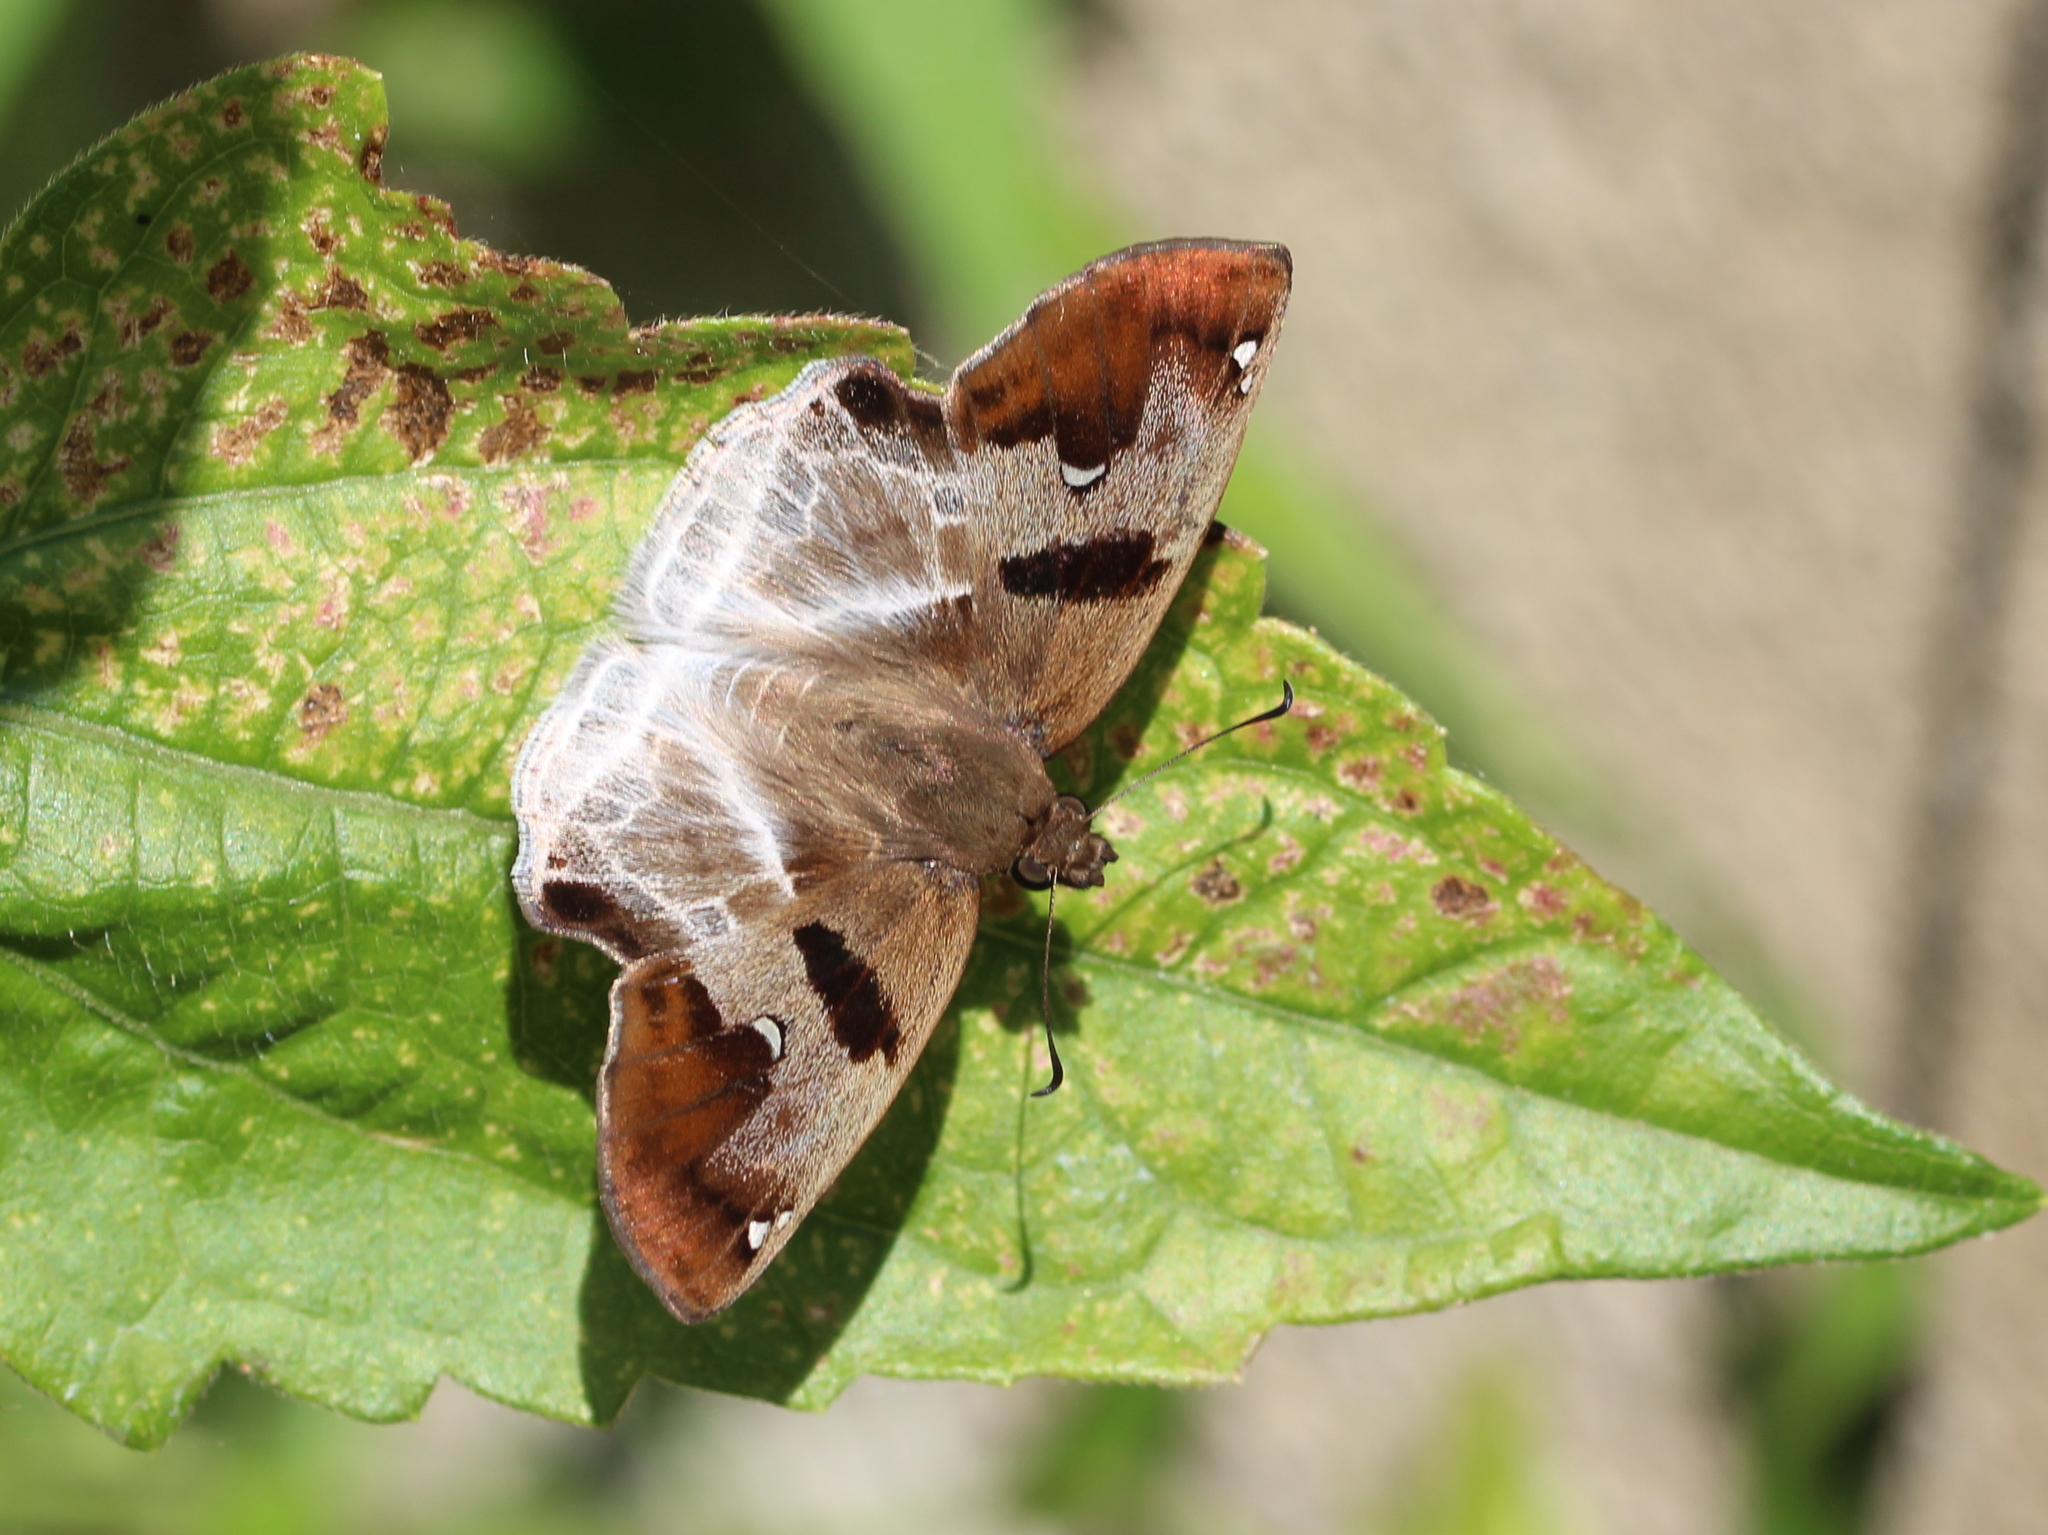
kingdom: Animalia
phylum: Arthropoda
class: Insecta
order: Lepidoptera
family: Hesperiidae
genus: Odontoptilum
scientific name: Odontoptilum angulata
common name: Chestnut banded angle
